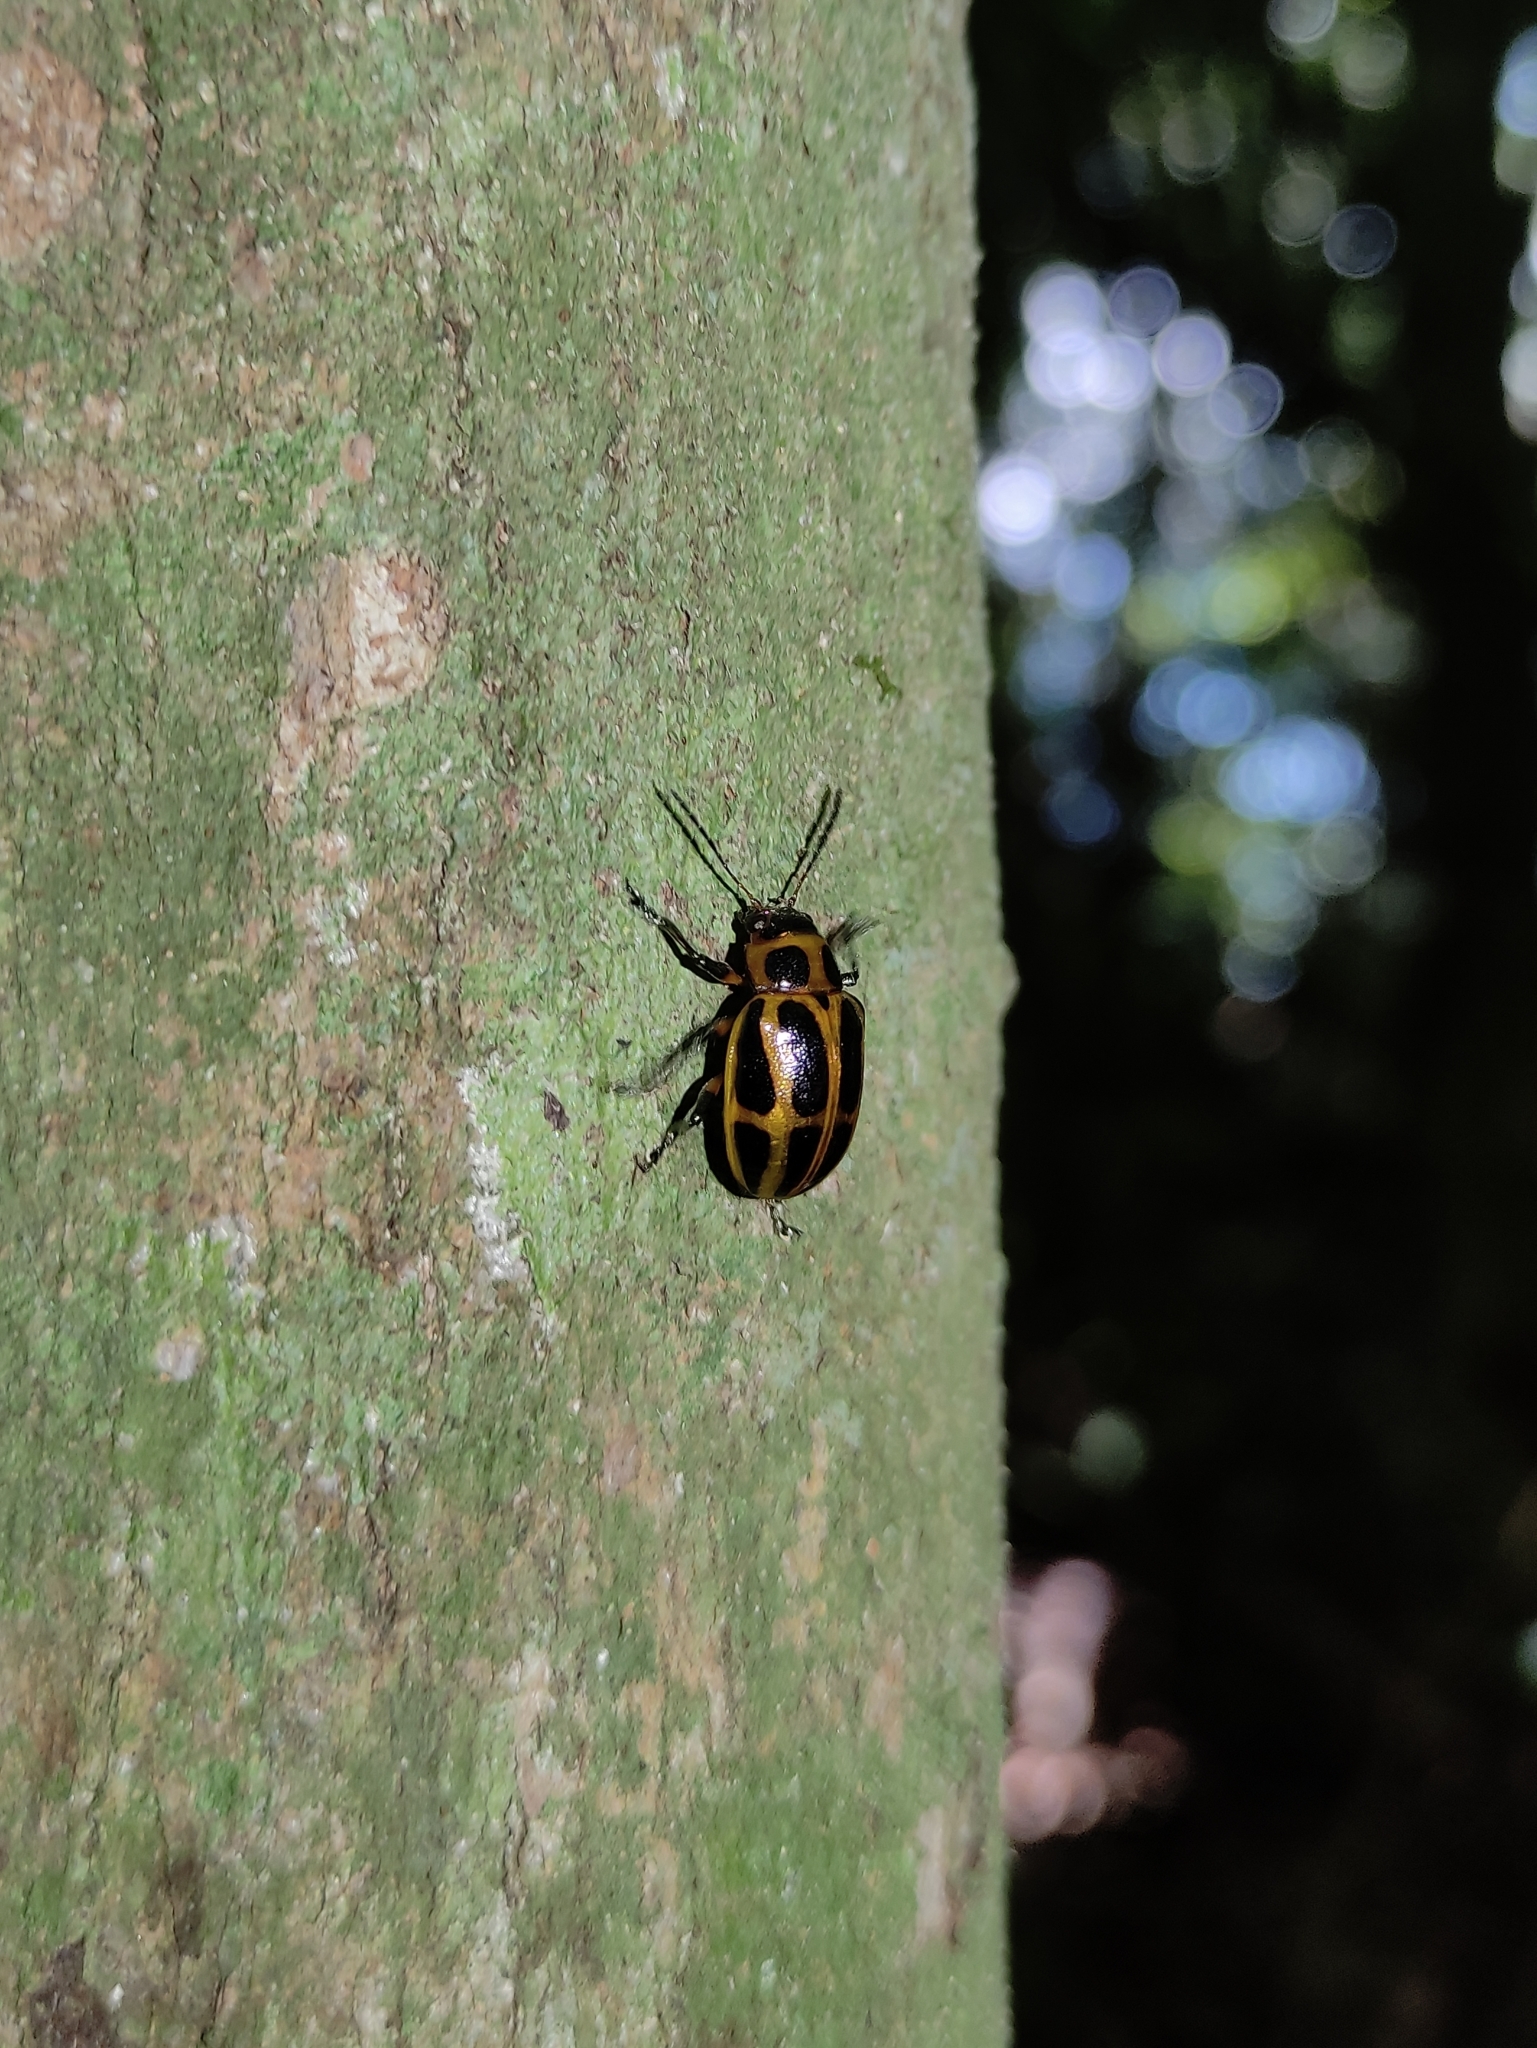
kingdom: Animalia
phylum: Arthropoda
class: Insecta
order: Coleoptera
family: Chrysomelidae
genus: Endocephalus
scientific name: Endocephalus
